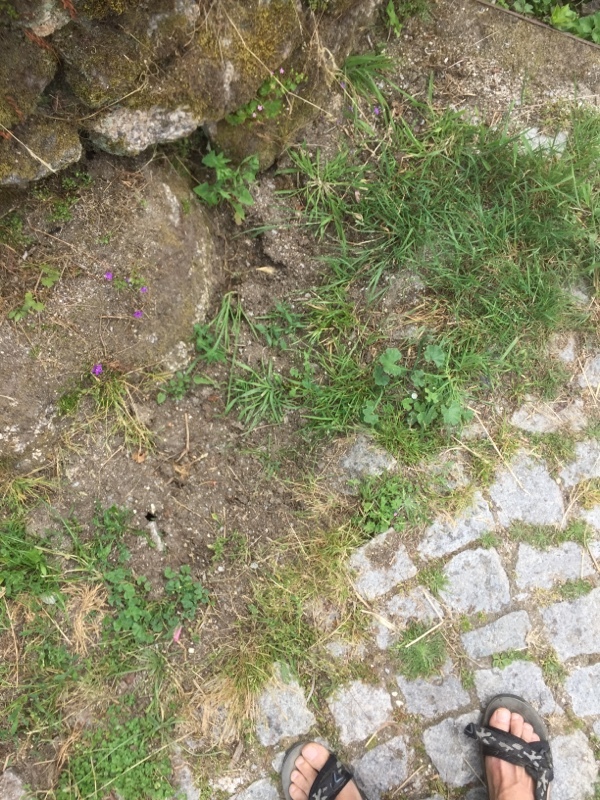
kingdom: Plantae
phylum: Tracheophyta
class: Magnoliopsida
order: Asterales
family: Campanulaceae
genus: Campanula
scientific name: Campanula lusitanica
